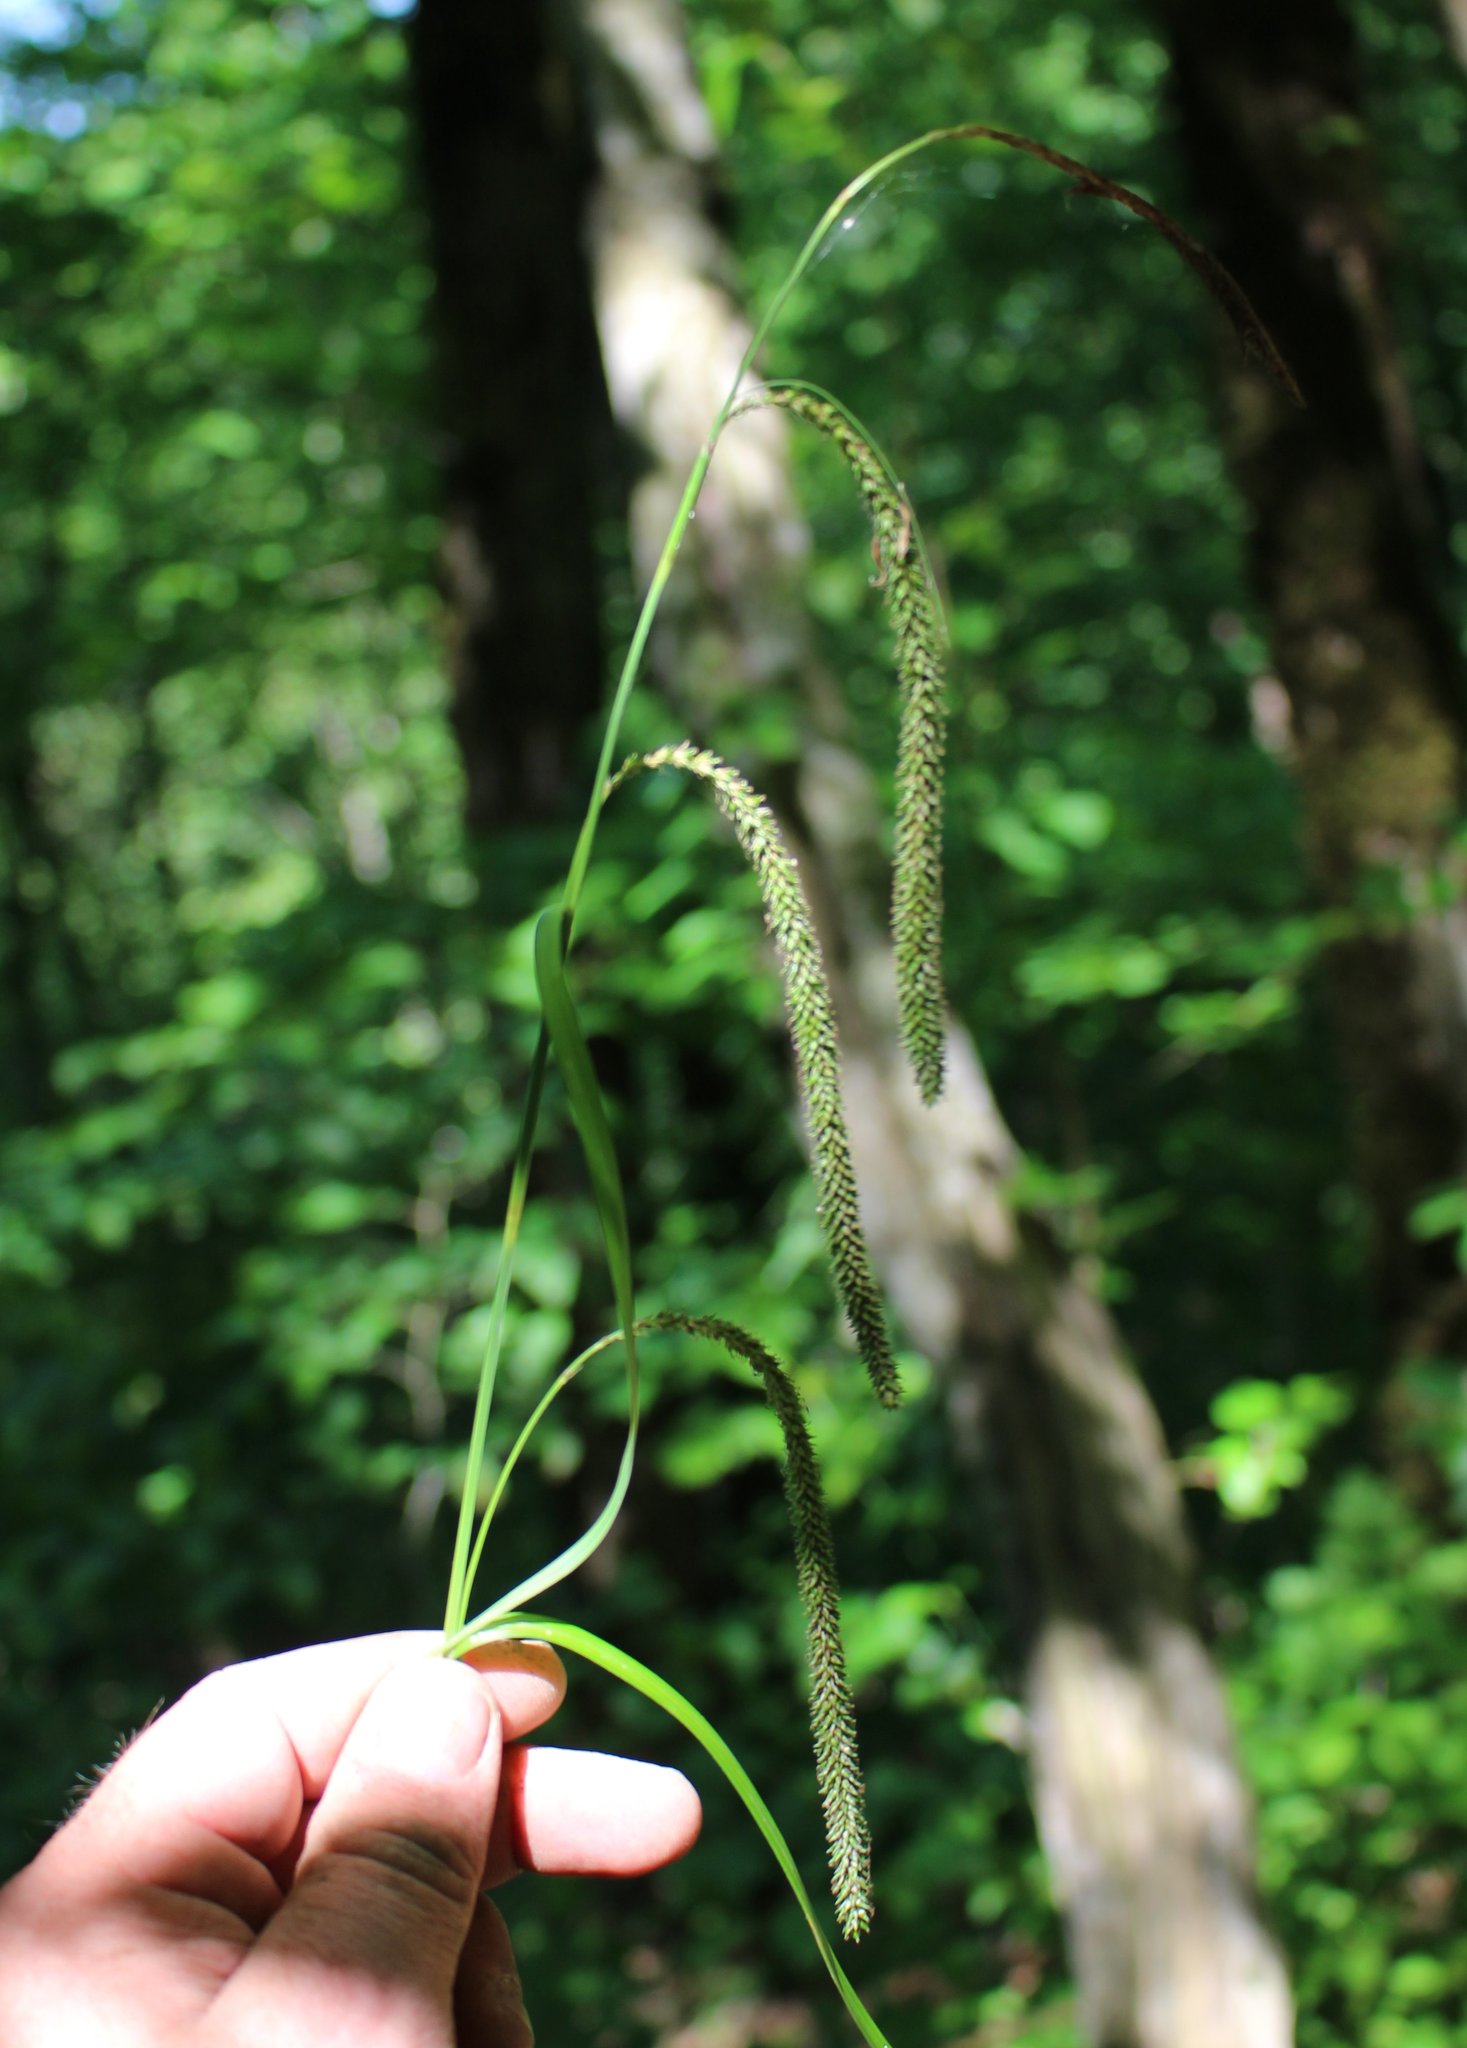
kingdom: Plantae
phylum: Tracheophyta
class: Liliopsida
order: Poales
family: Cyperaceae
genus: Carex
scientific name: Carex pendula
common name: Pendulous sedge
